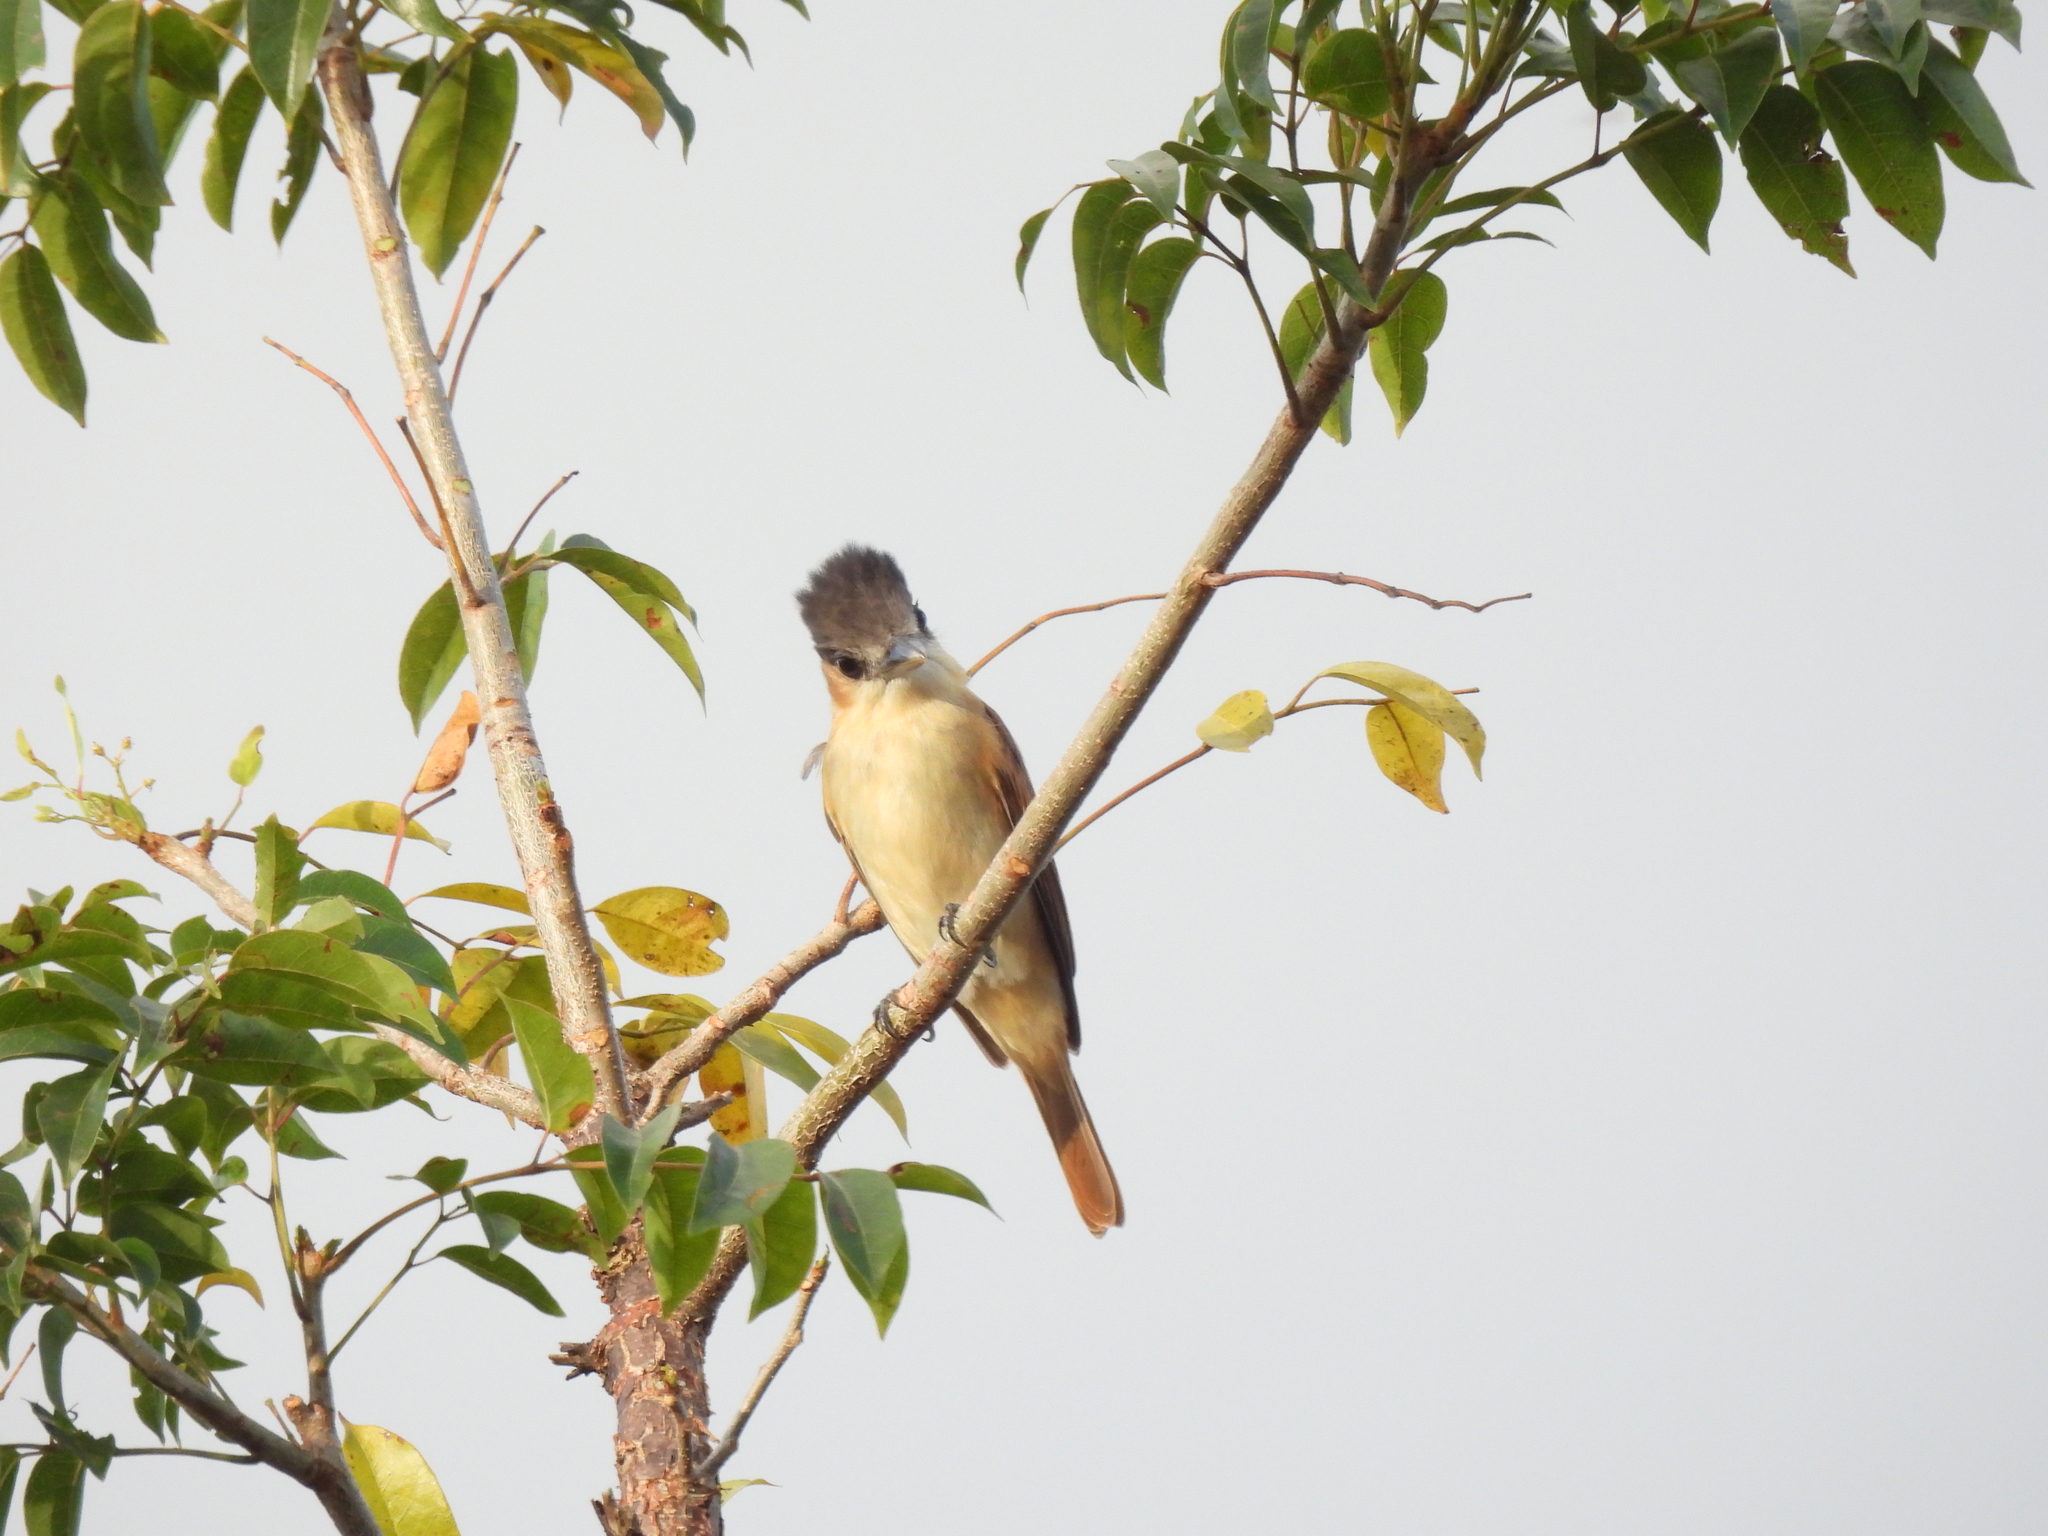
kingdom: Animalia
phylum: Chordata
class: Aves
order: Passeriformes
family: Cotingidae
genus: Pachyramphus
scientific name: Pachyramphus aglaiae
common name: Rose-throated becard
